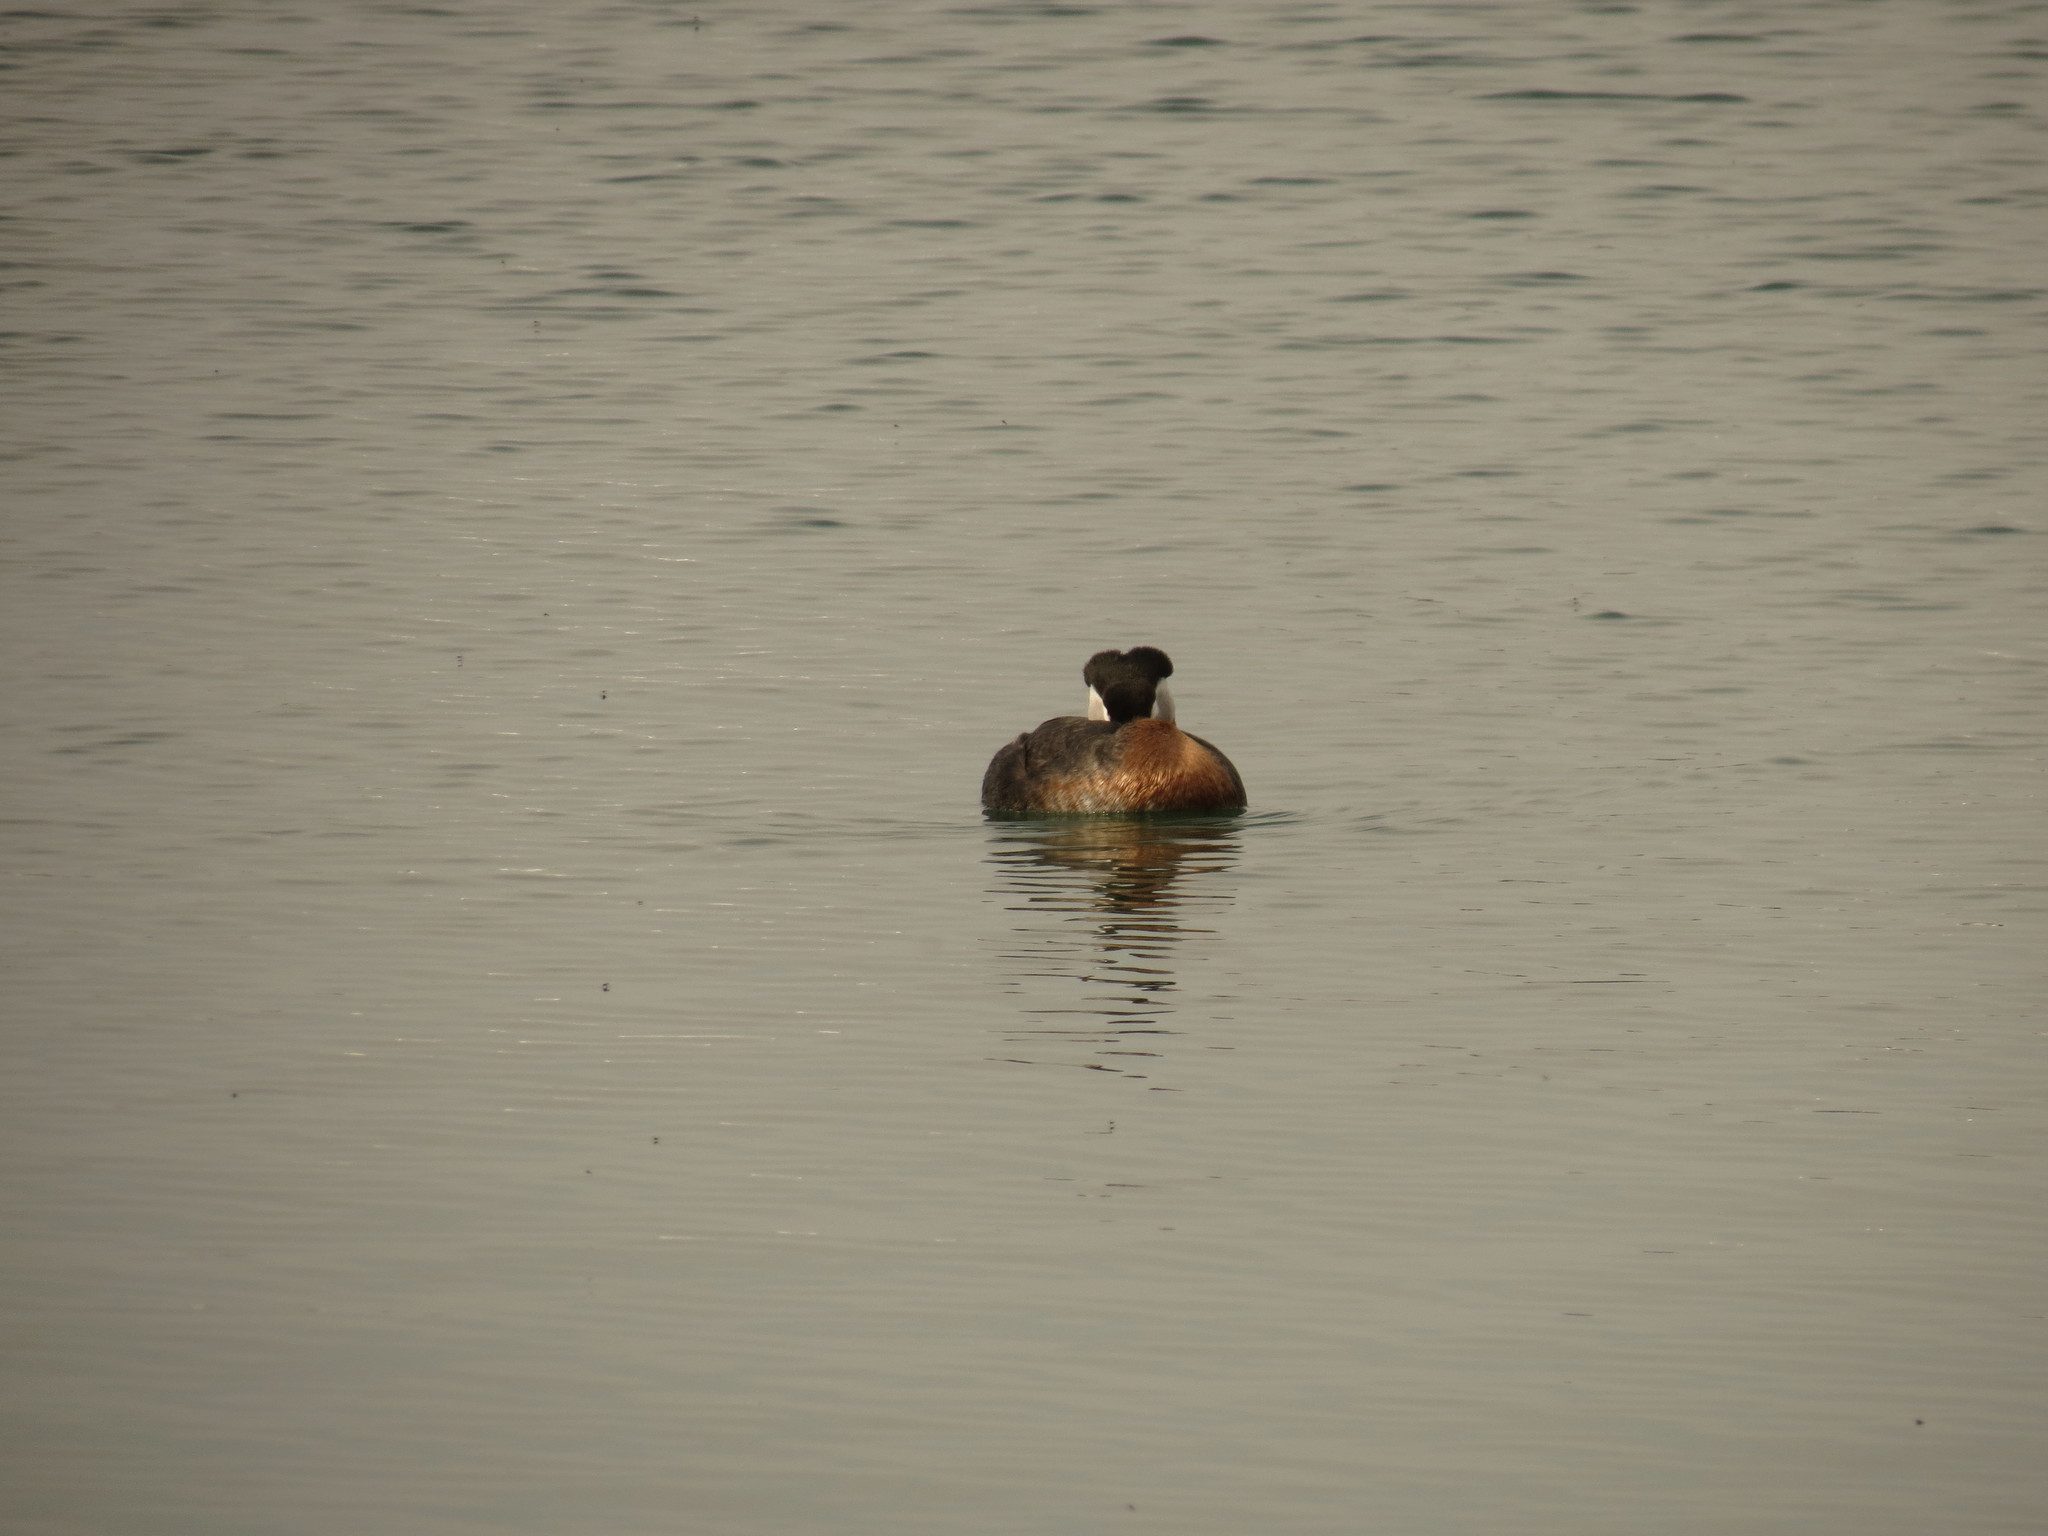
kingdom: Animalia
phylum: Chordata
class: Aves
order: Podicipediformes
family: Podicipedidae
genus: Podiceps
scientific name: Podiceps grisegena
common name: Red-necked grebe
